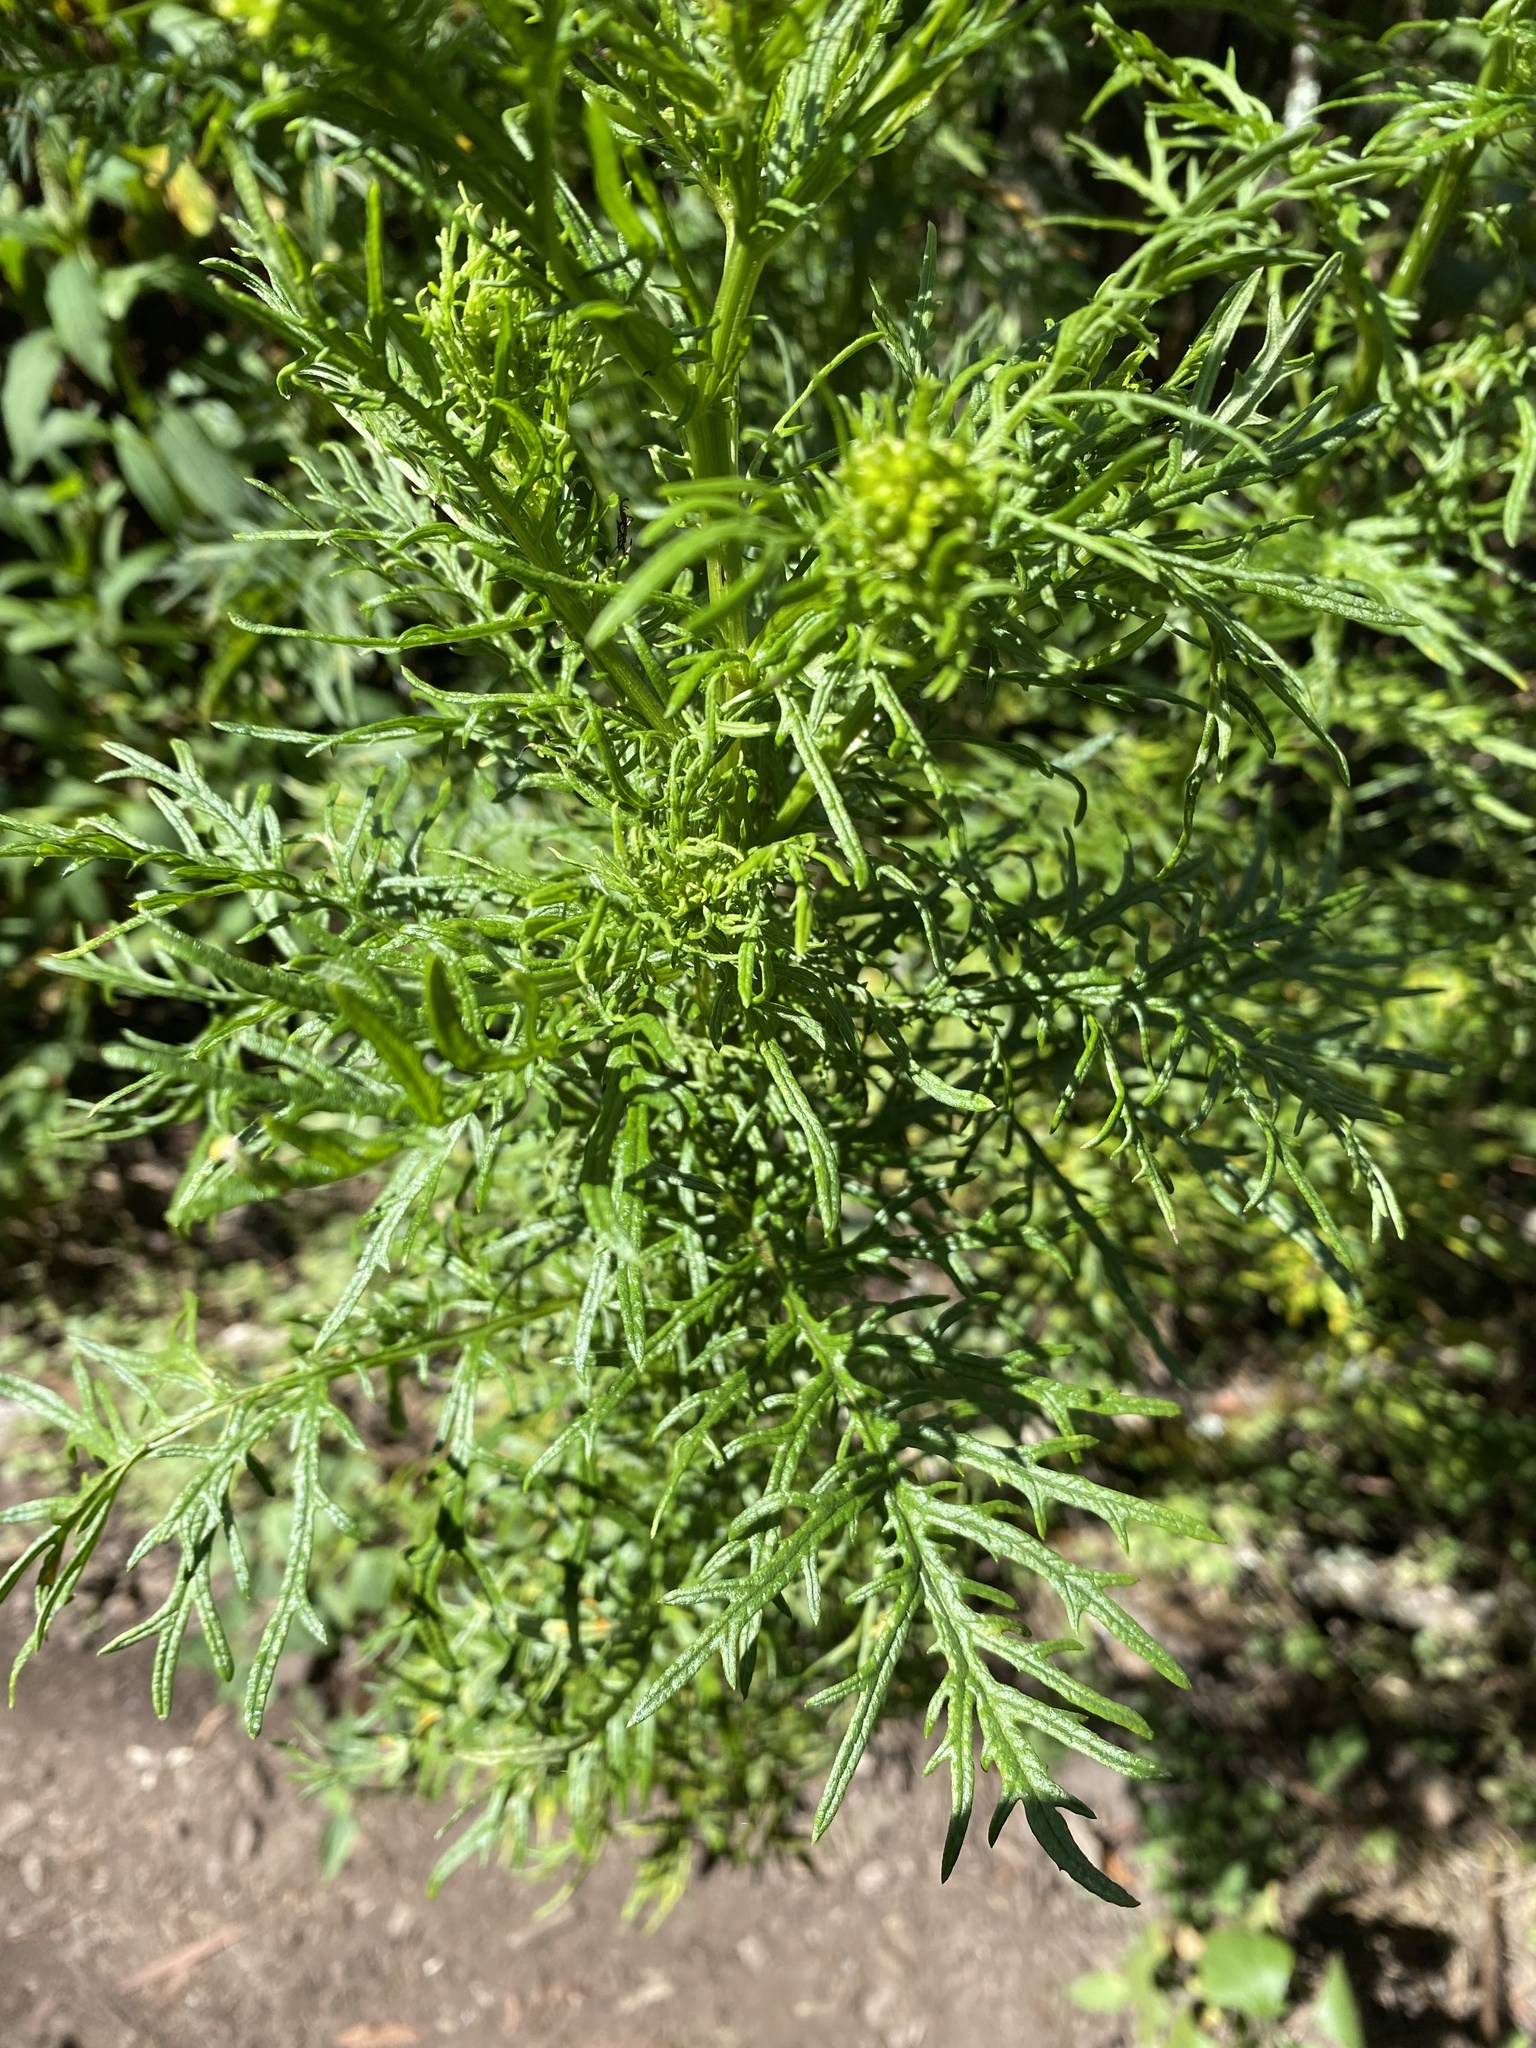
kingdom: Plantae
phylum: Tracheophyta
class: Magnoliopsida
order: Asterales
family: Asteraceae
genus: Senecio
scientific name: Senecio bipinnatisectus
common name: Australian fireweed
